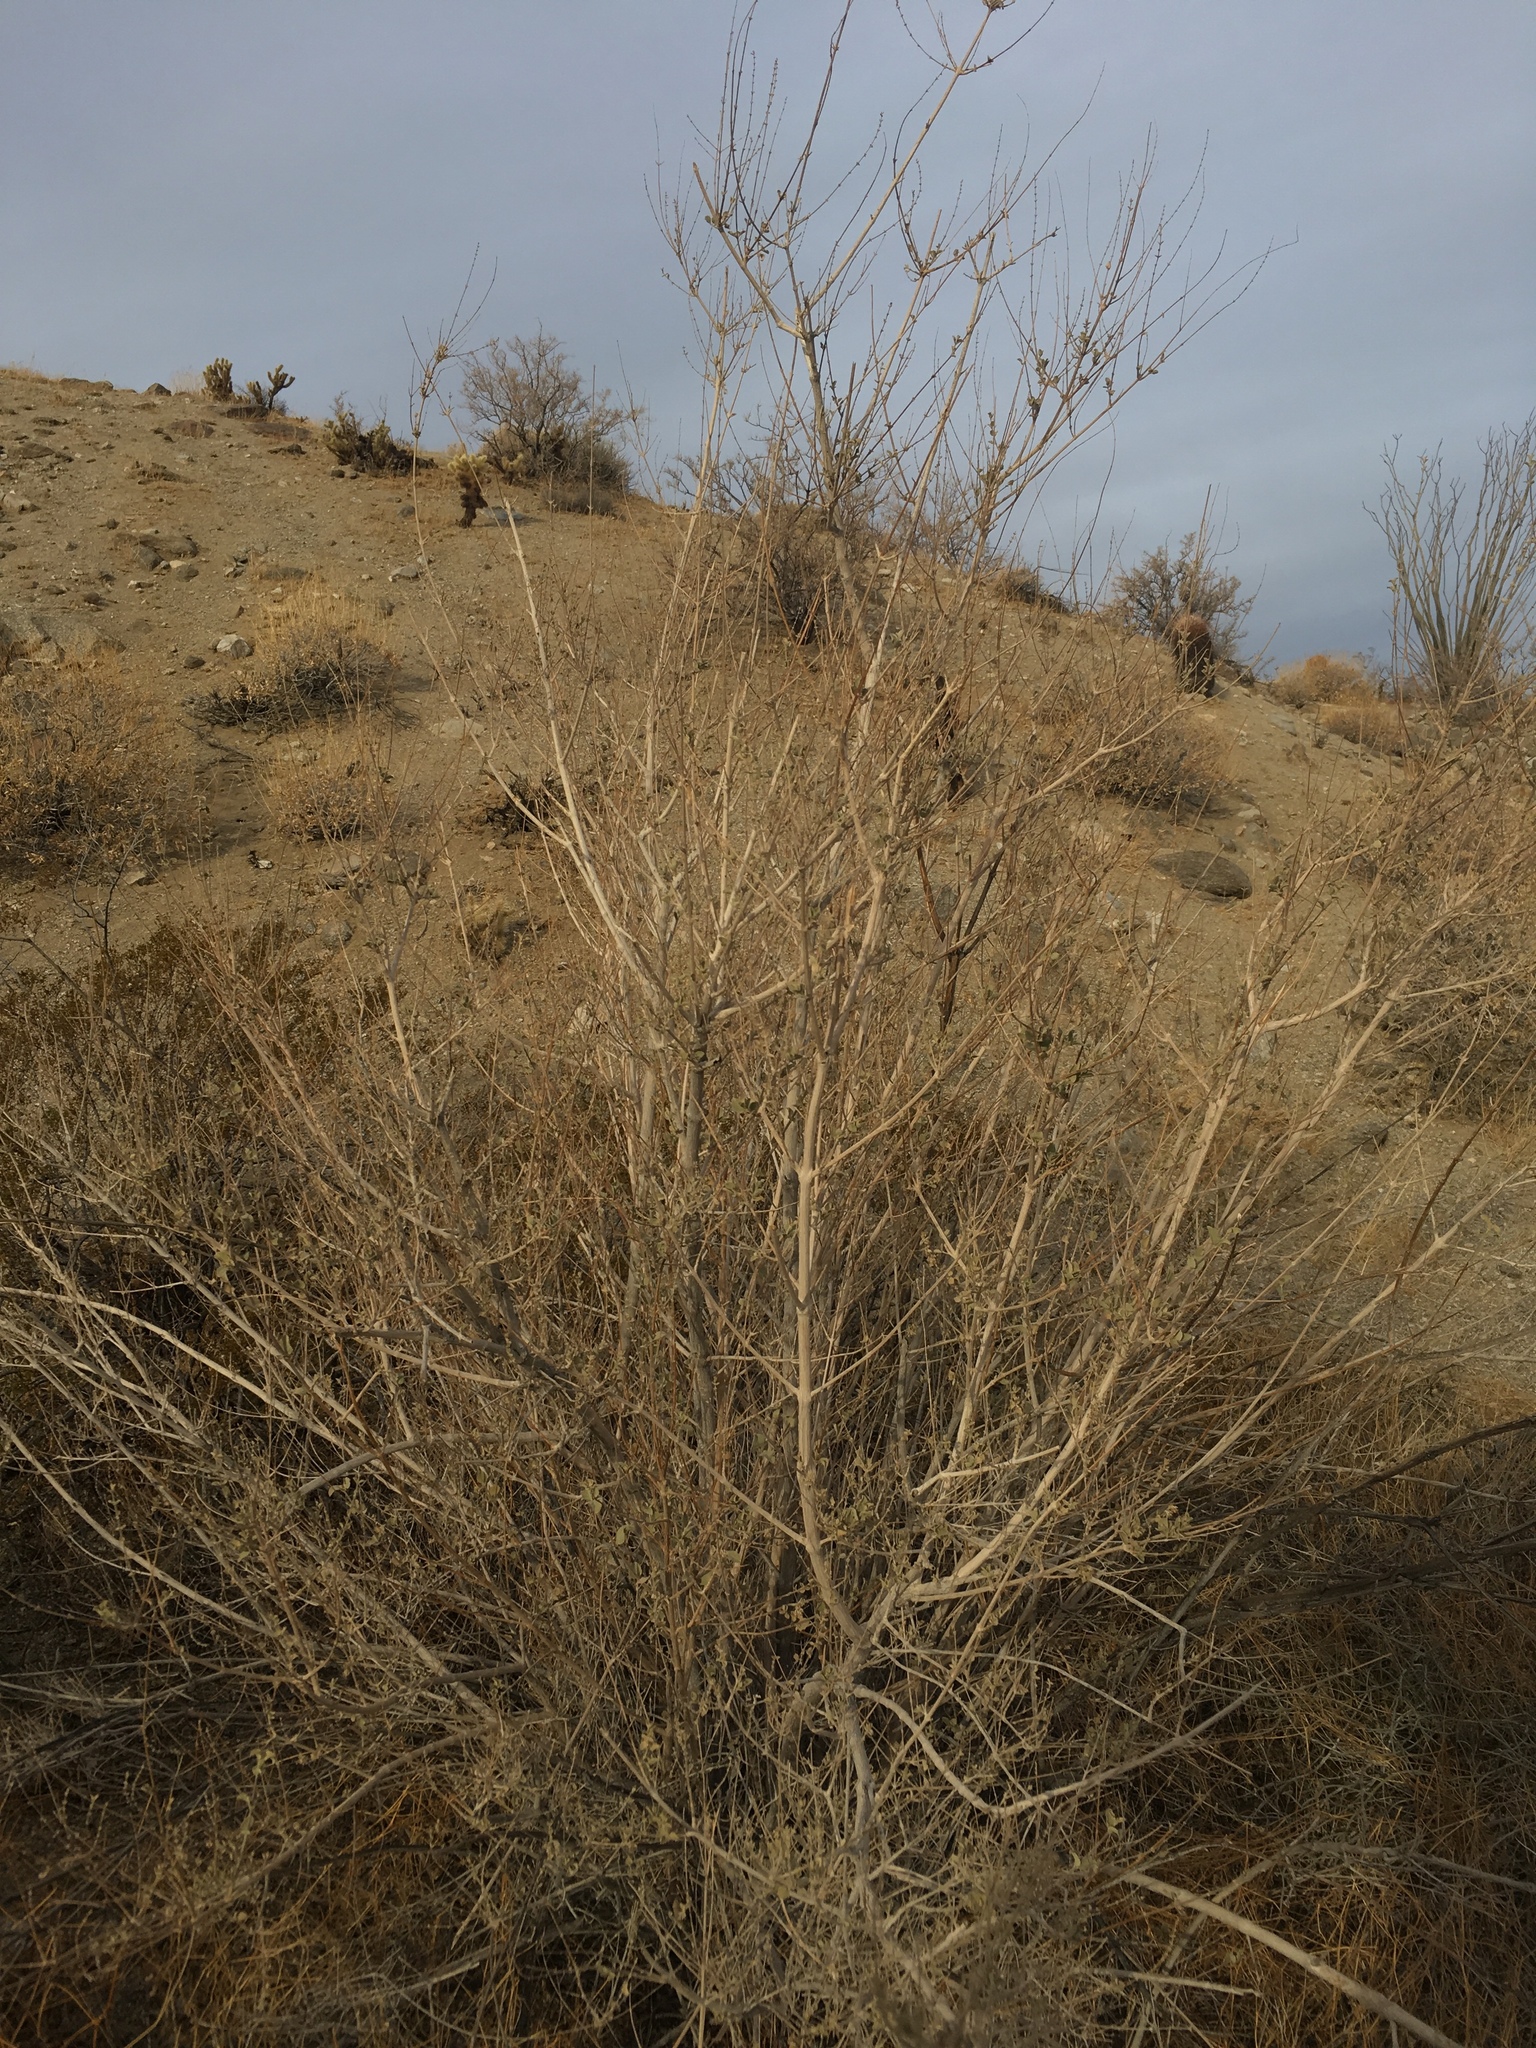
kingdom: Plantae
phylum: Tracheophyta
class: Magnoliopsida
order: Lamiales
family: Lamiaceae
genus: Condea
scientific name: Condea emoryi
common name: Chia
